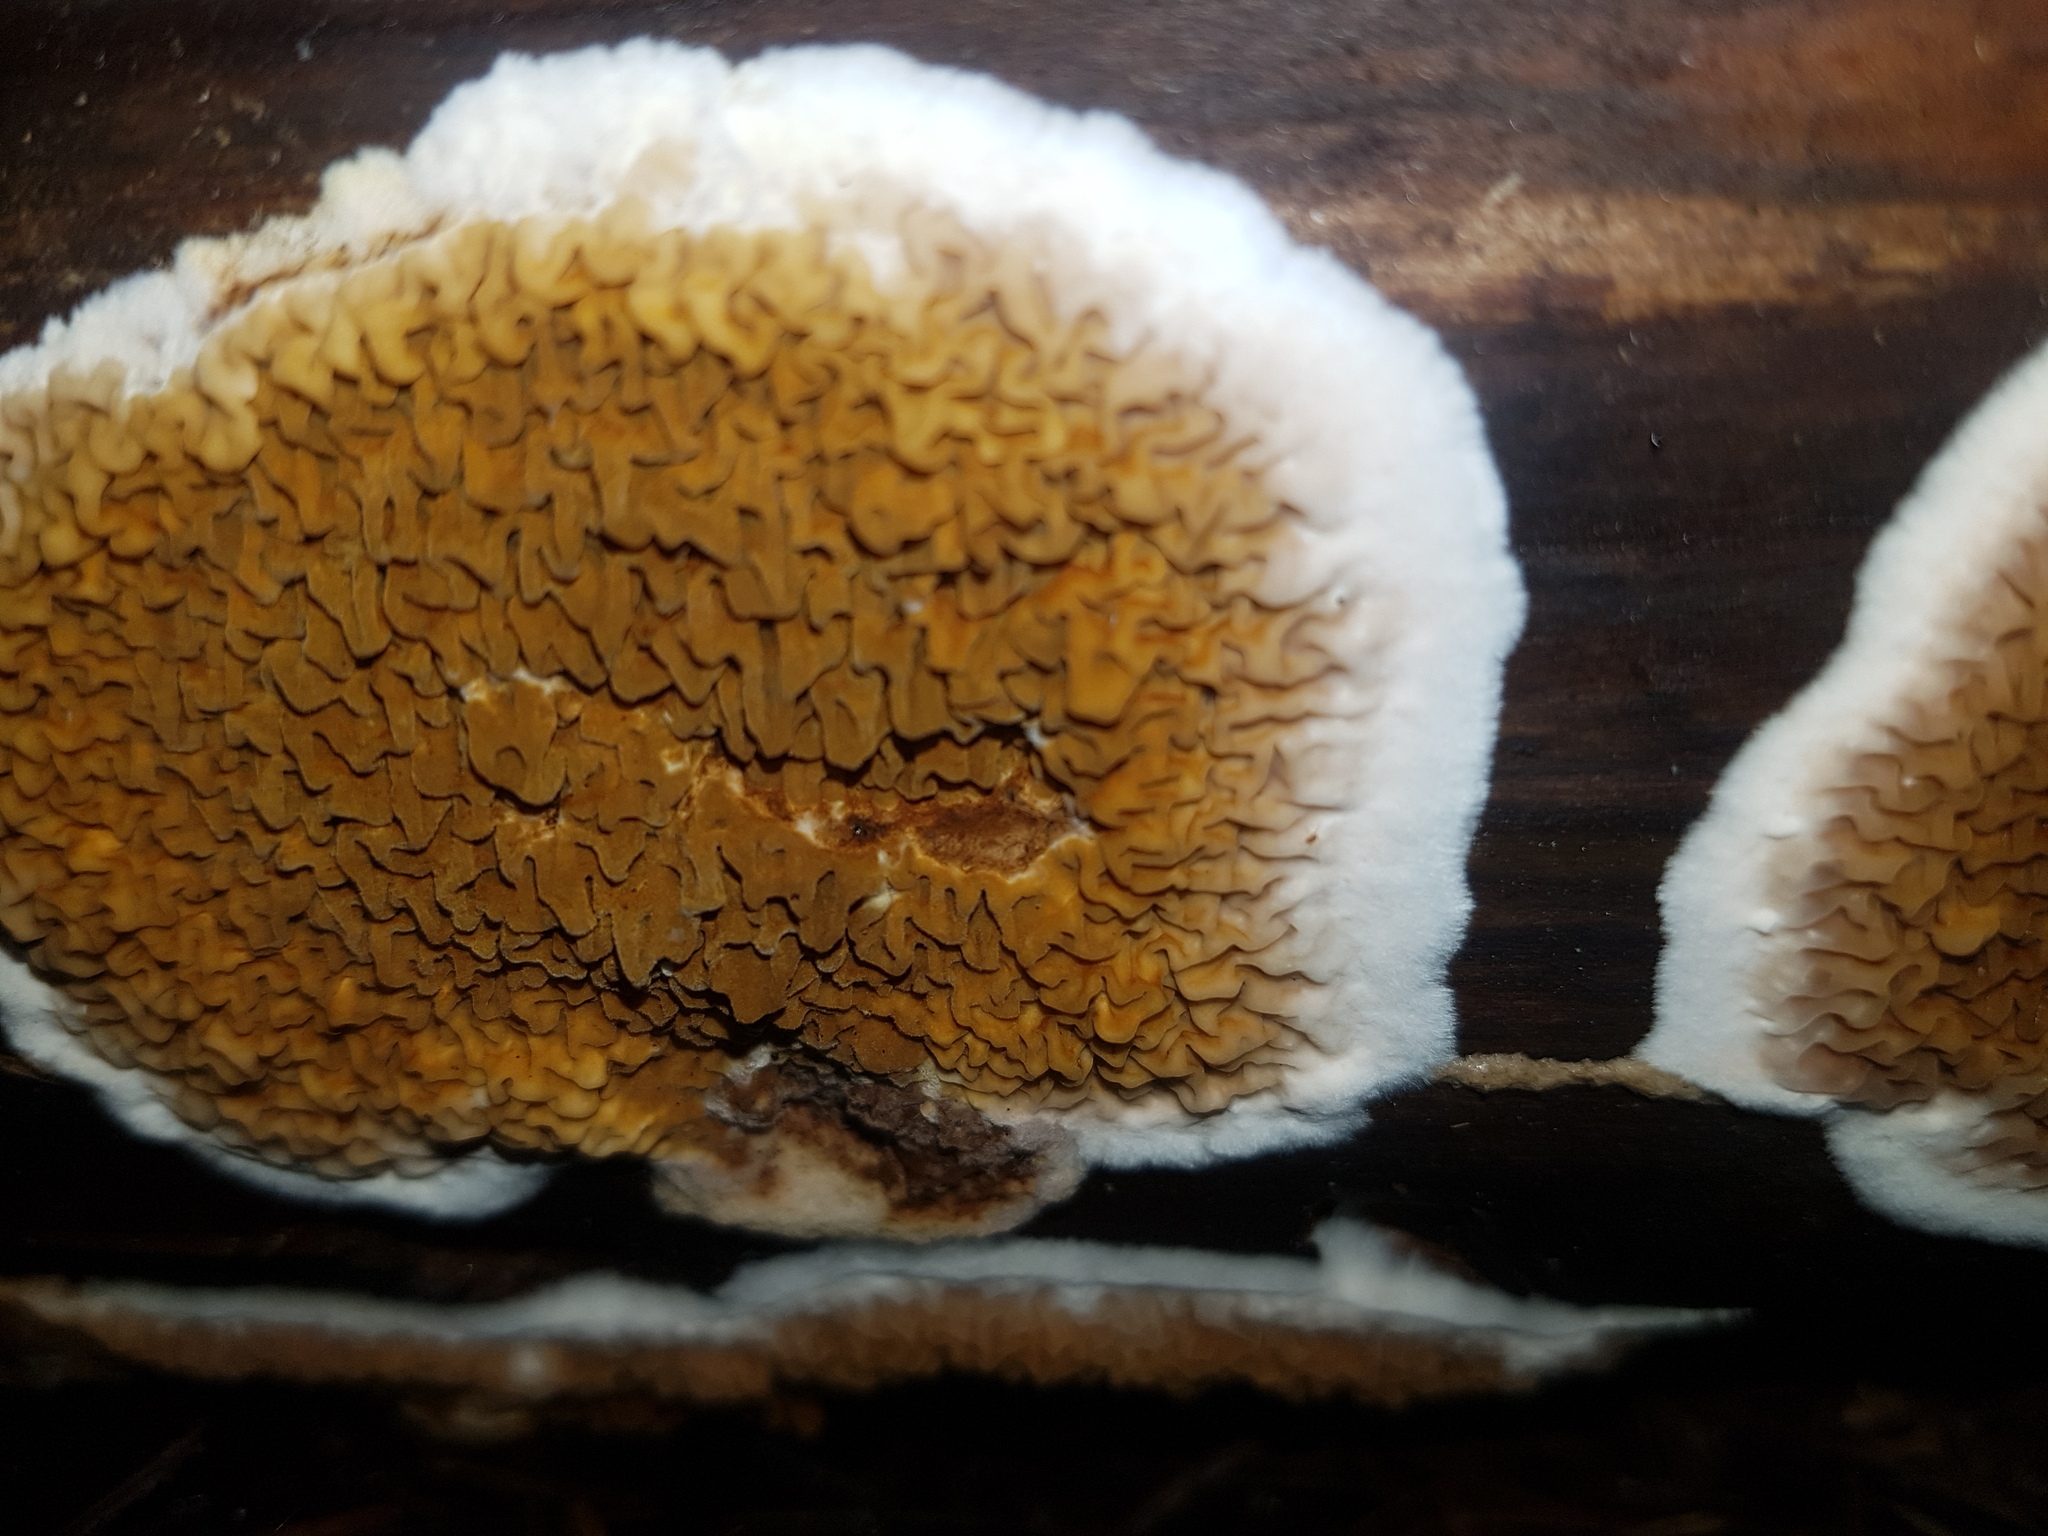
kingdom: Fungi
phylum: Basidiomycota
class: Agaricomycetes
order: Boletales
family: Serpulaceae
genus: Serpula
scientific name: Serpula himantioides
